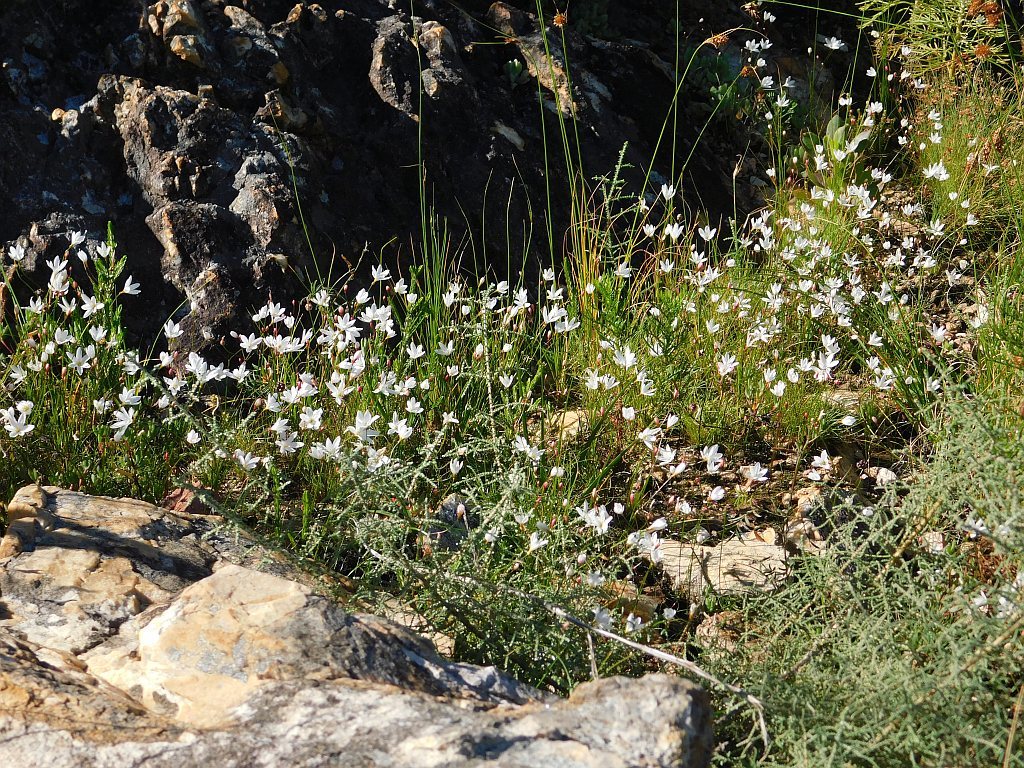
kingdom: Plantae
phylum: Tracheophyta
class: Liliopsida
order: Asparagales
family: Amaryllidaceae
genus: Strumaria
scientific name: Strumaria spiralis
